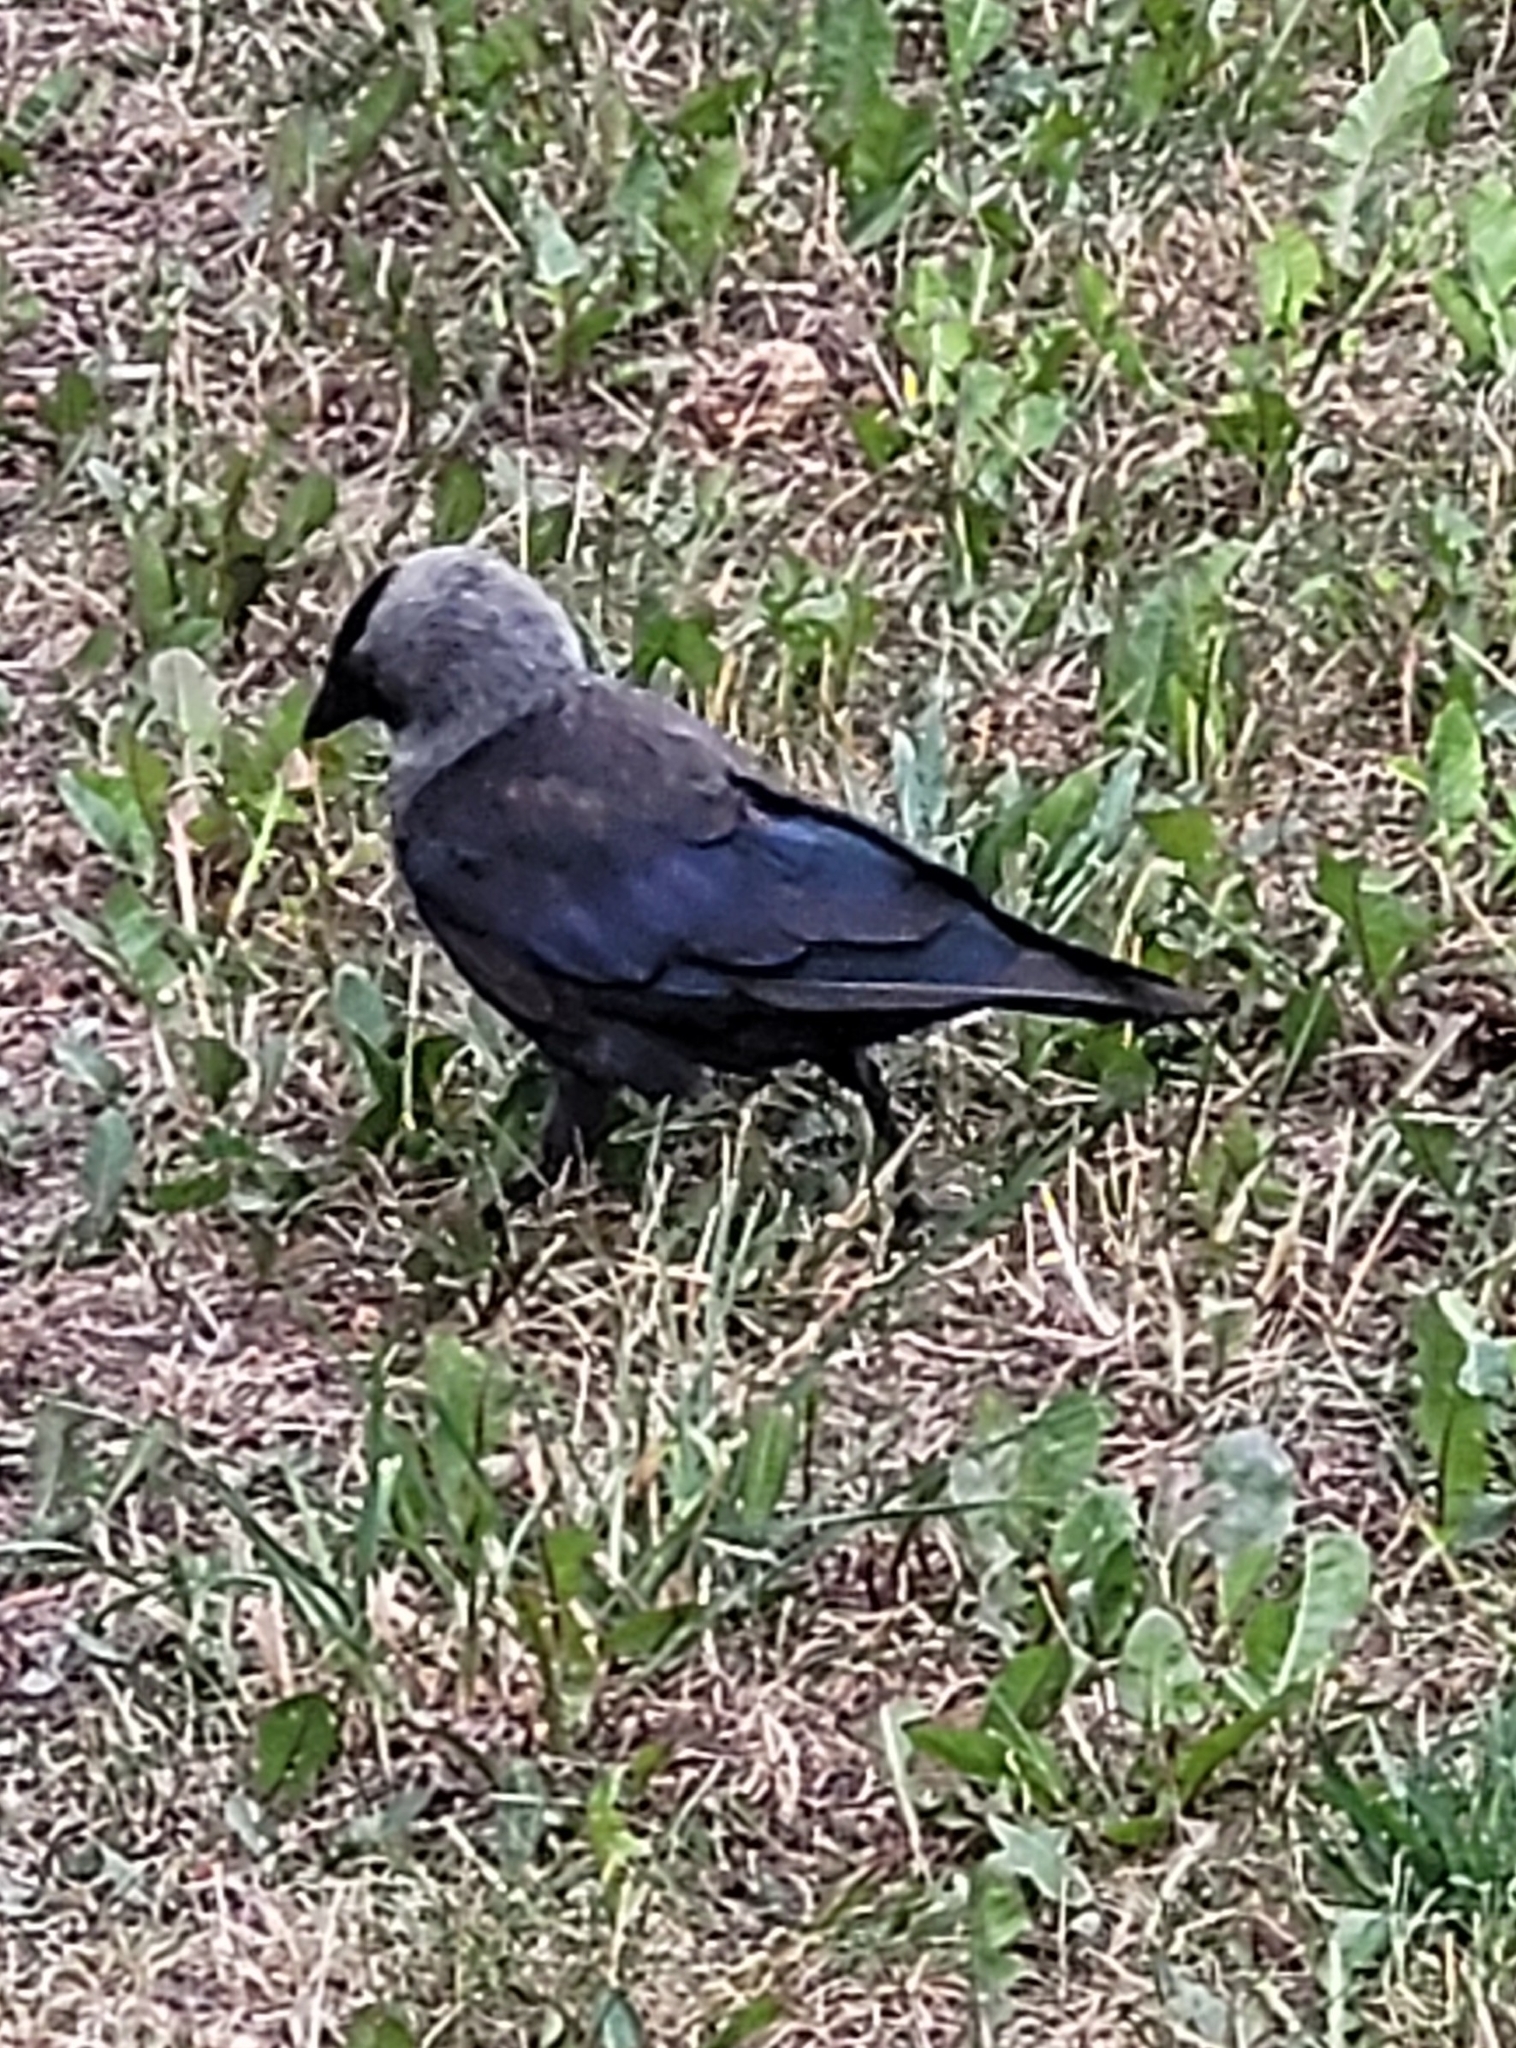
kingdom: Animalia
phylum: Chordata
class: Aves
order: Passeriformes
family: Corvidae
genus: Coloeus
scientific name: Coloeus monedula
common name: Western jackdaw
